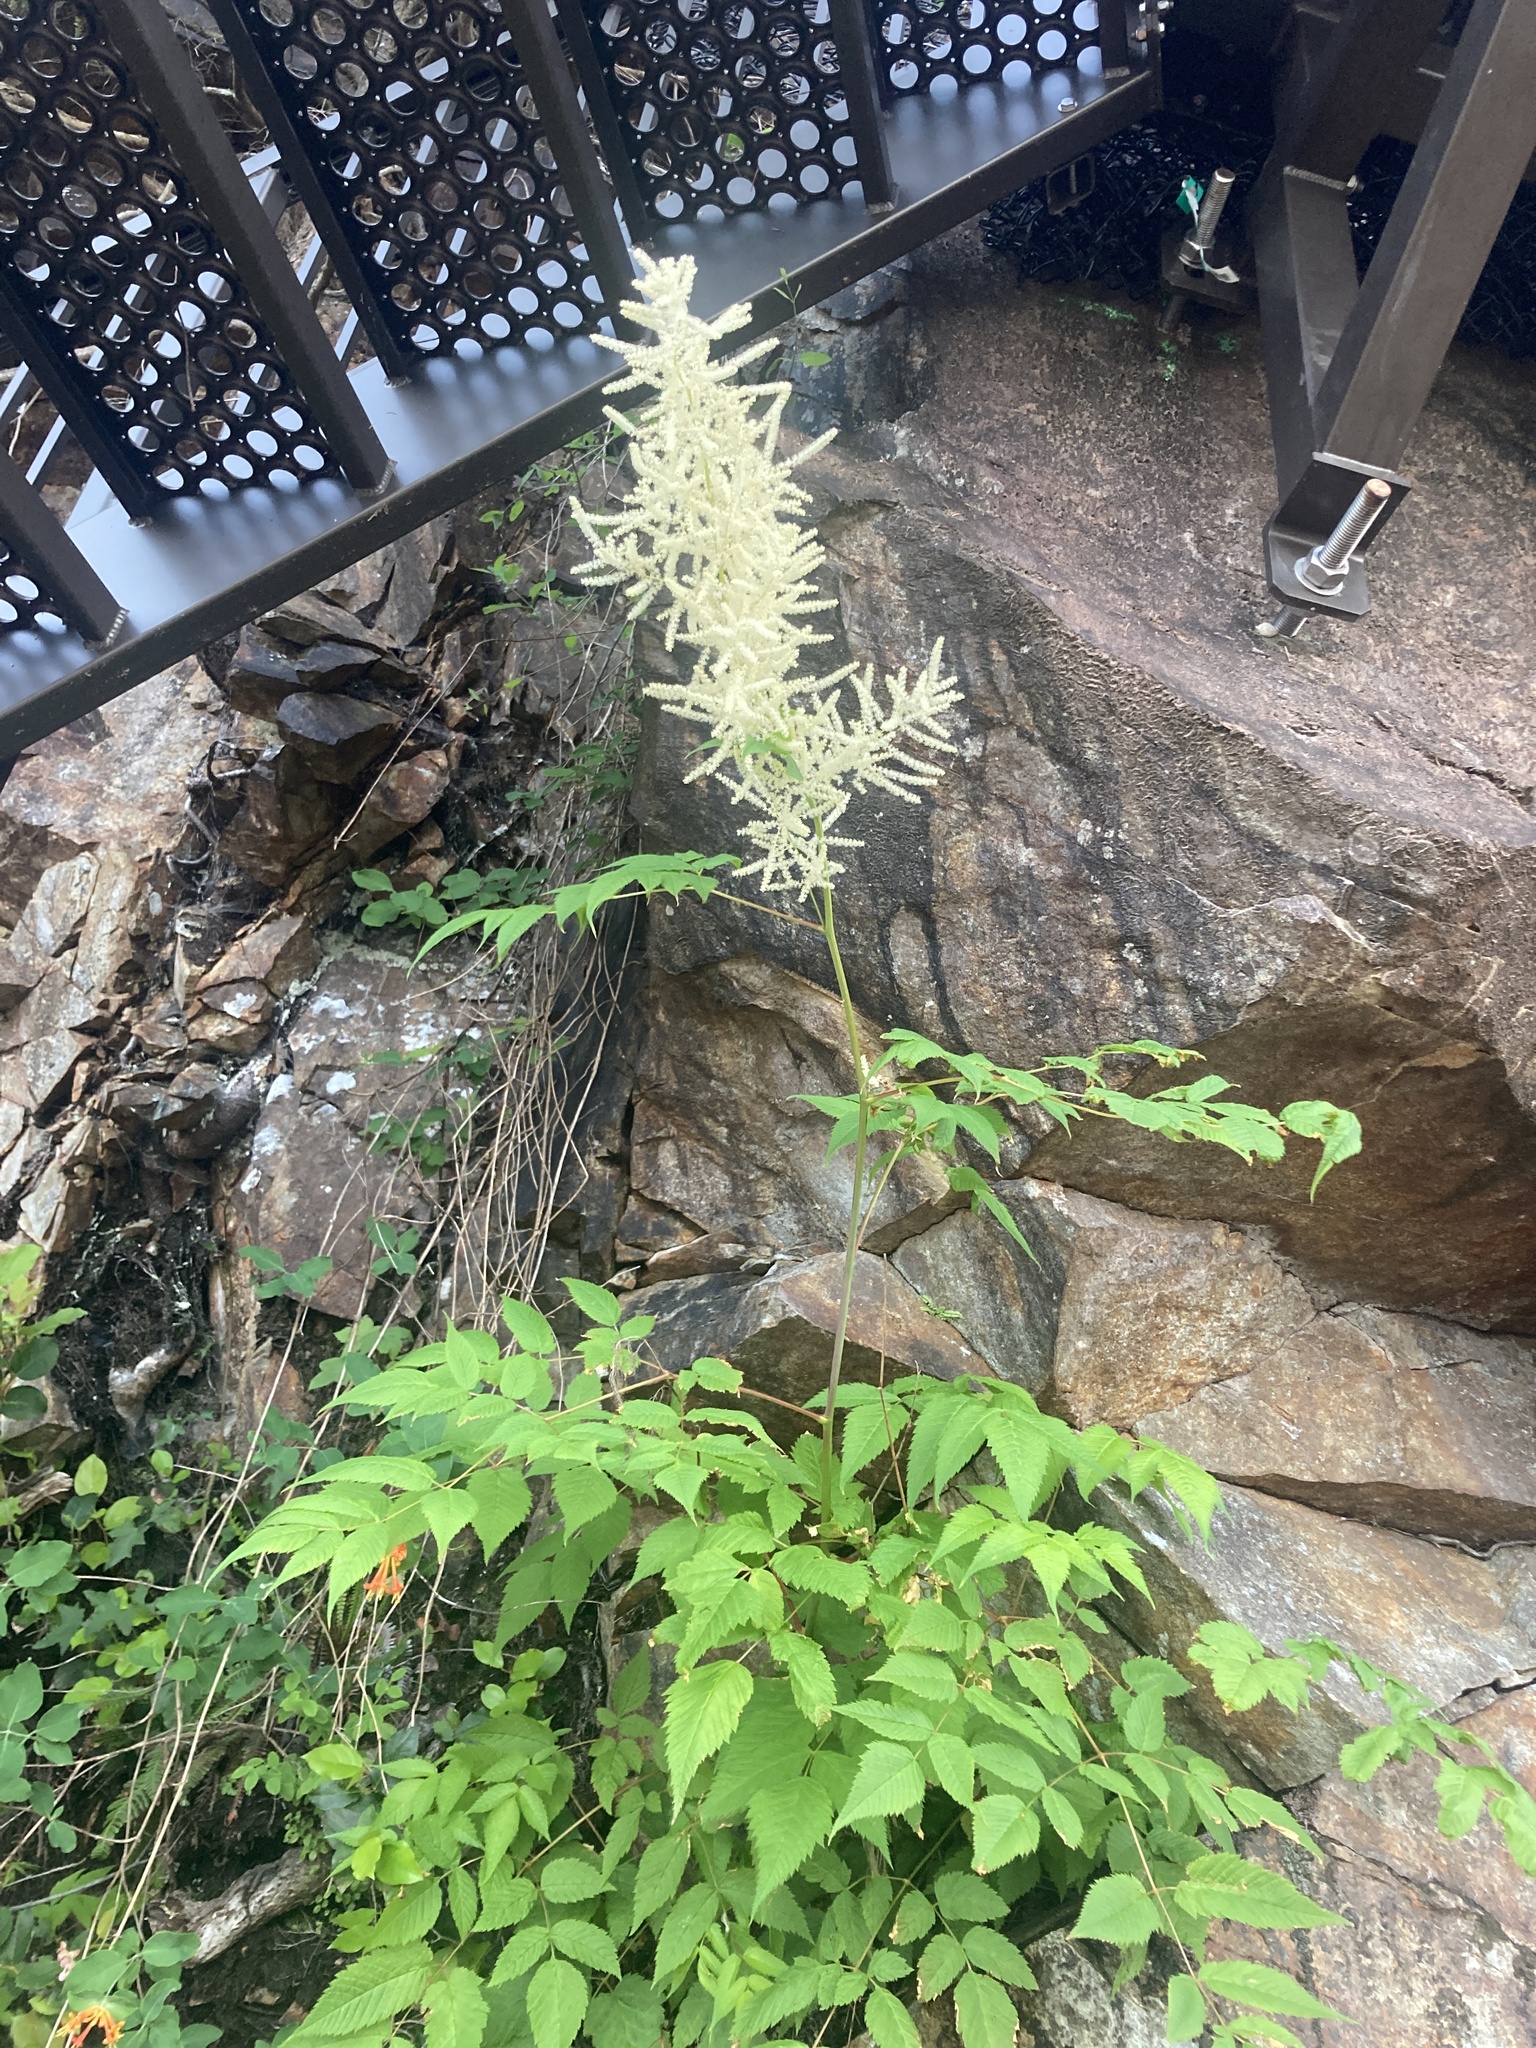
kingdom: Plantae
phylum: Tracheophyta
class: Magnoliopsida
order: Rosales
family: Rosaceae
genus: Aruncus
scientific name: Aruncus dioicus
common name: Buck's-beard
